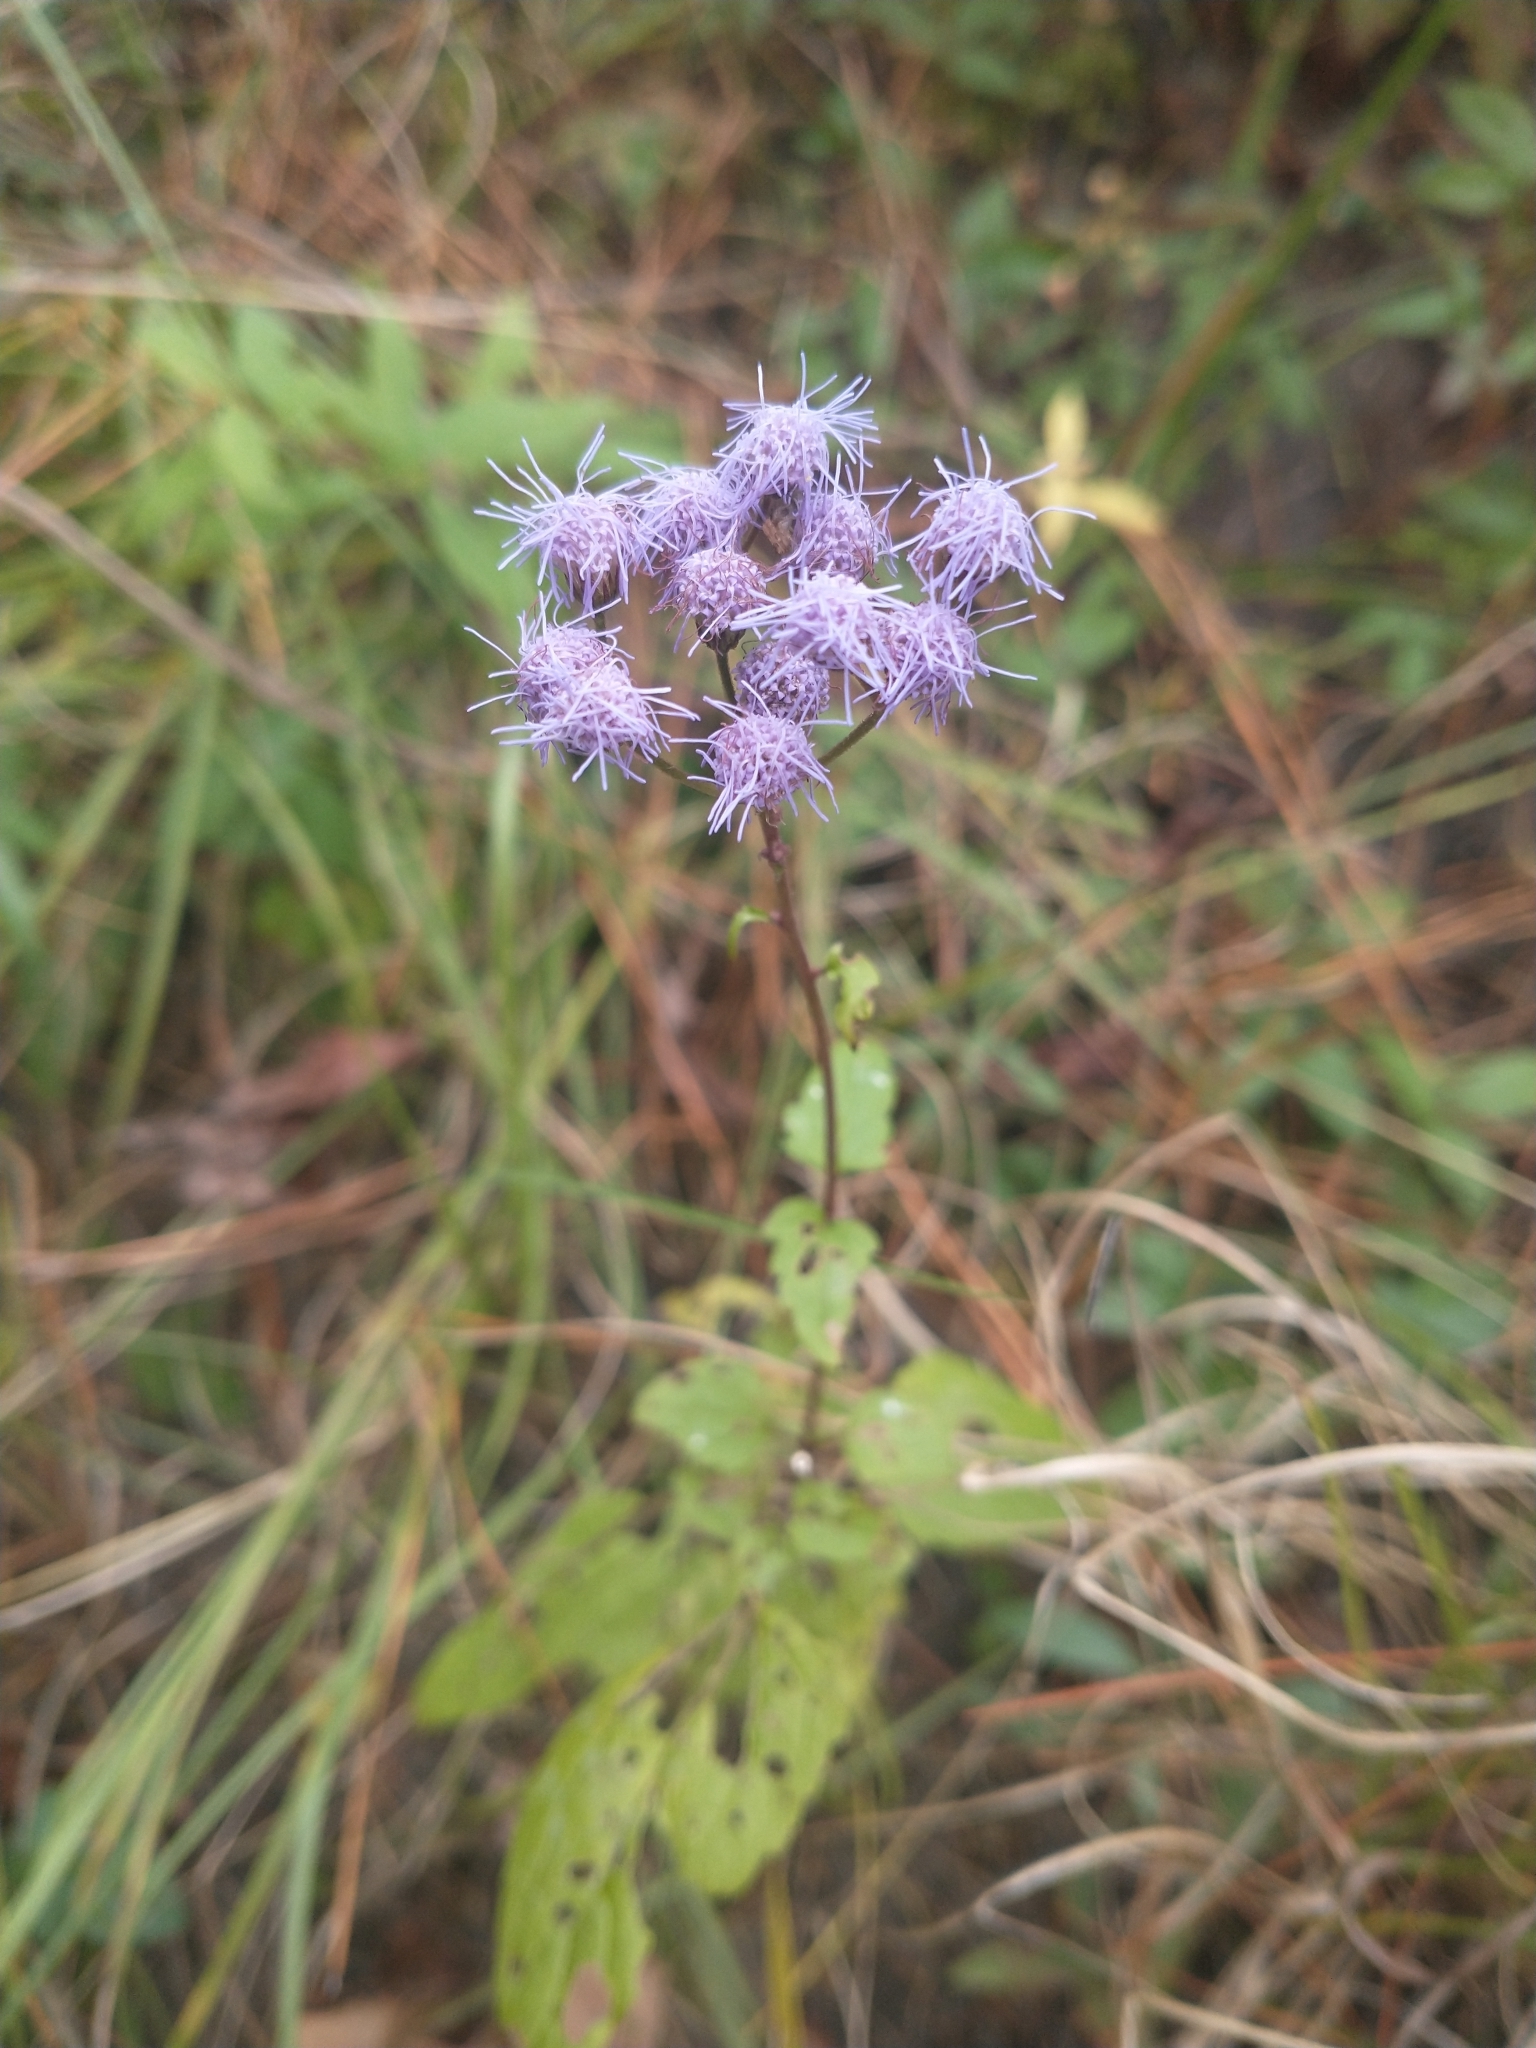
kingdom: Plantae
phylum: Tracheophyta
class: Magnoliopsida
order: Asterales
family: Asteraceae
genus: Conoclinium
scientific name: Conoclinium coelestinum
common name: Blue mistflower
